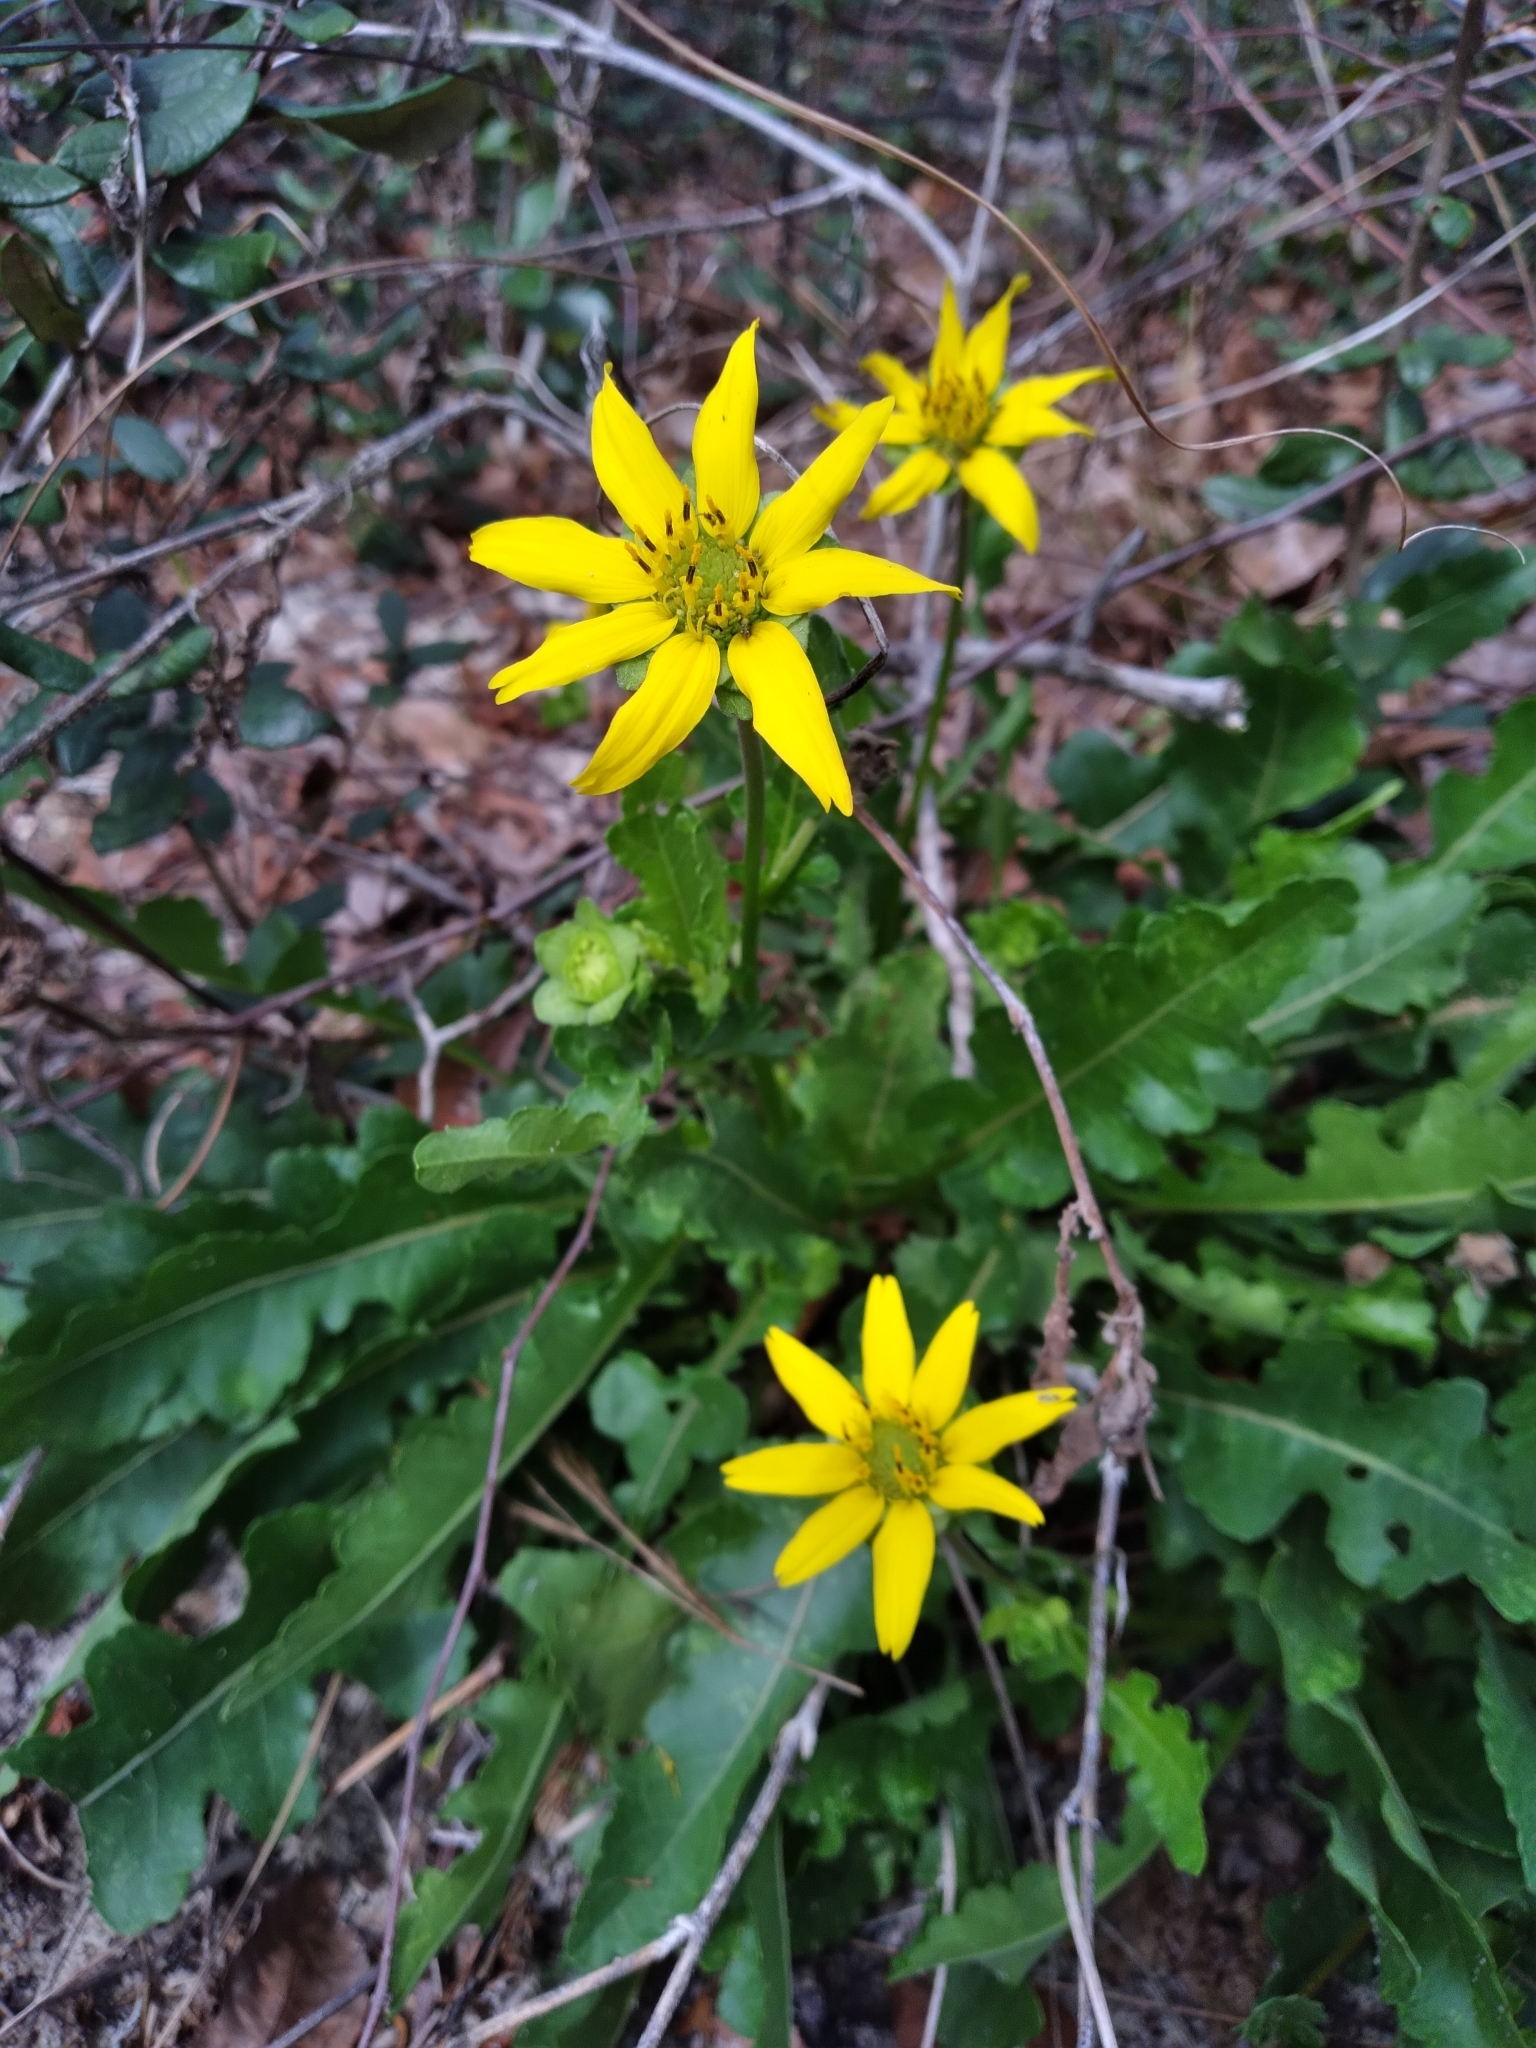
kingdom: Plantae
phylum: Tracheophyta
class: Magnoliopsida
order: Asterales
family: Asteraceae
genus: Berlandiera
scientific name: Berlandiera subacaulis
